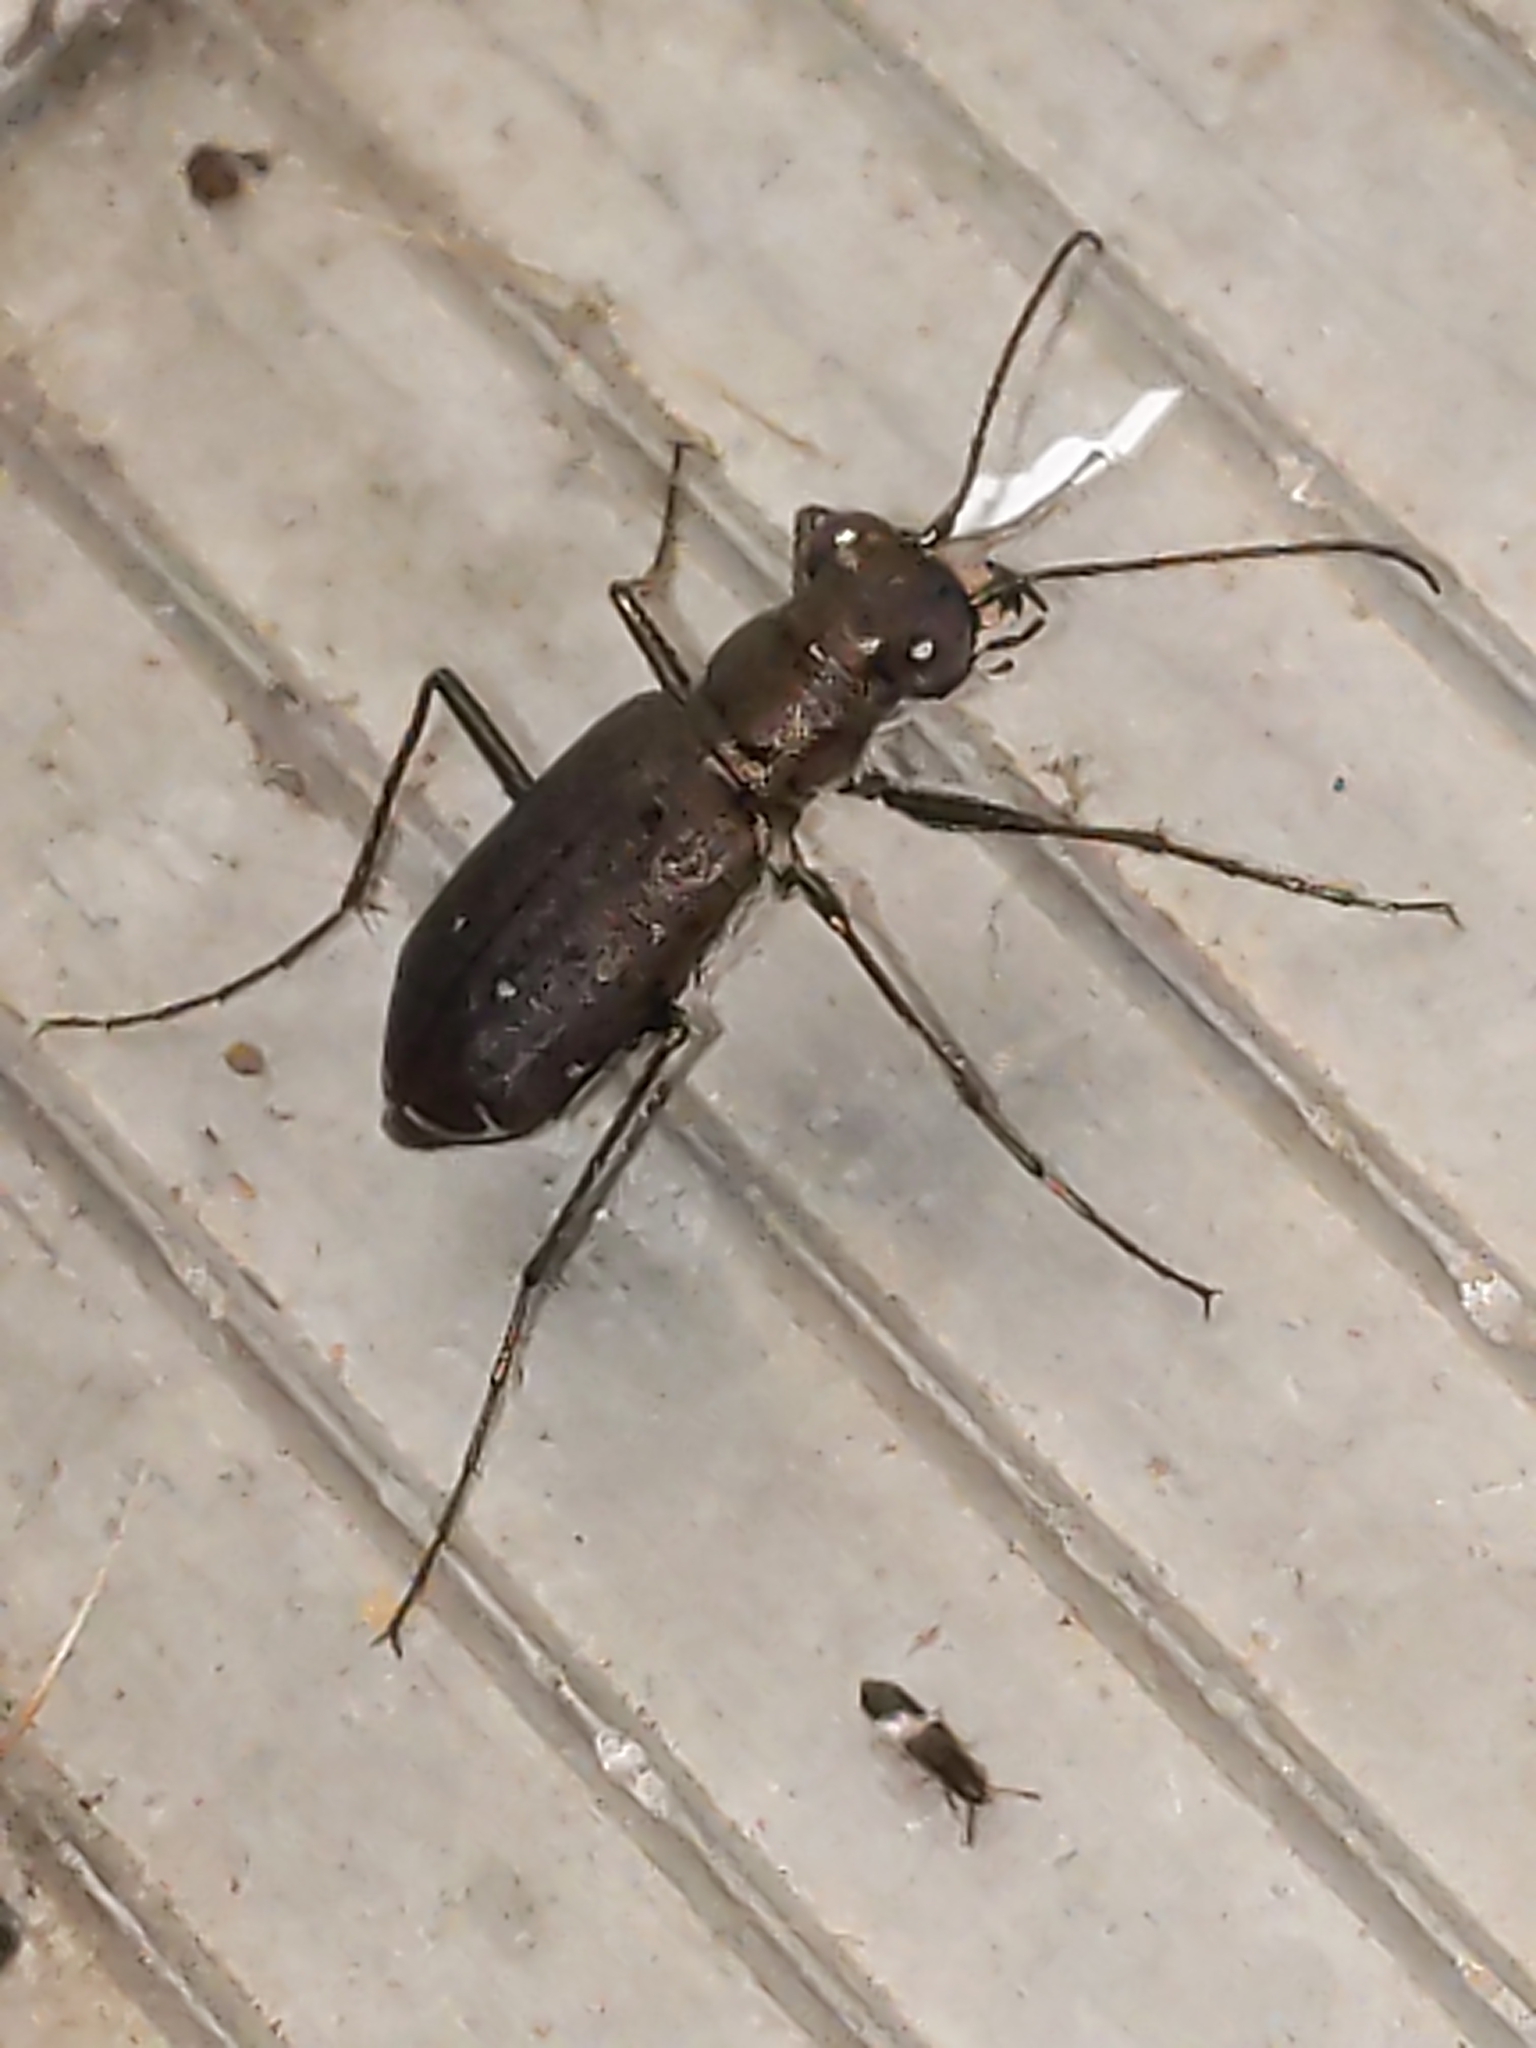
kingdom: Animalia
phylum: Arthropoda
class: Insecta
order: Coleoptera
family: Carabidae
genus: Cicindela
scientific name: Cicindela punctulata
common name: Punctured tiger beetle
